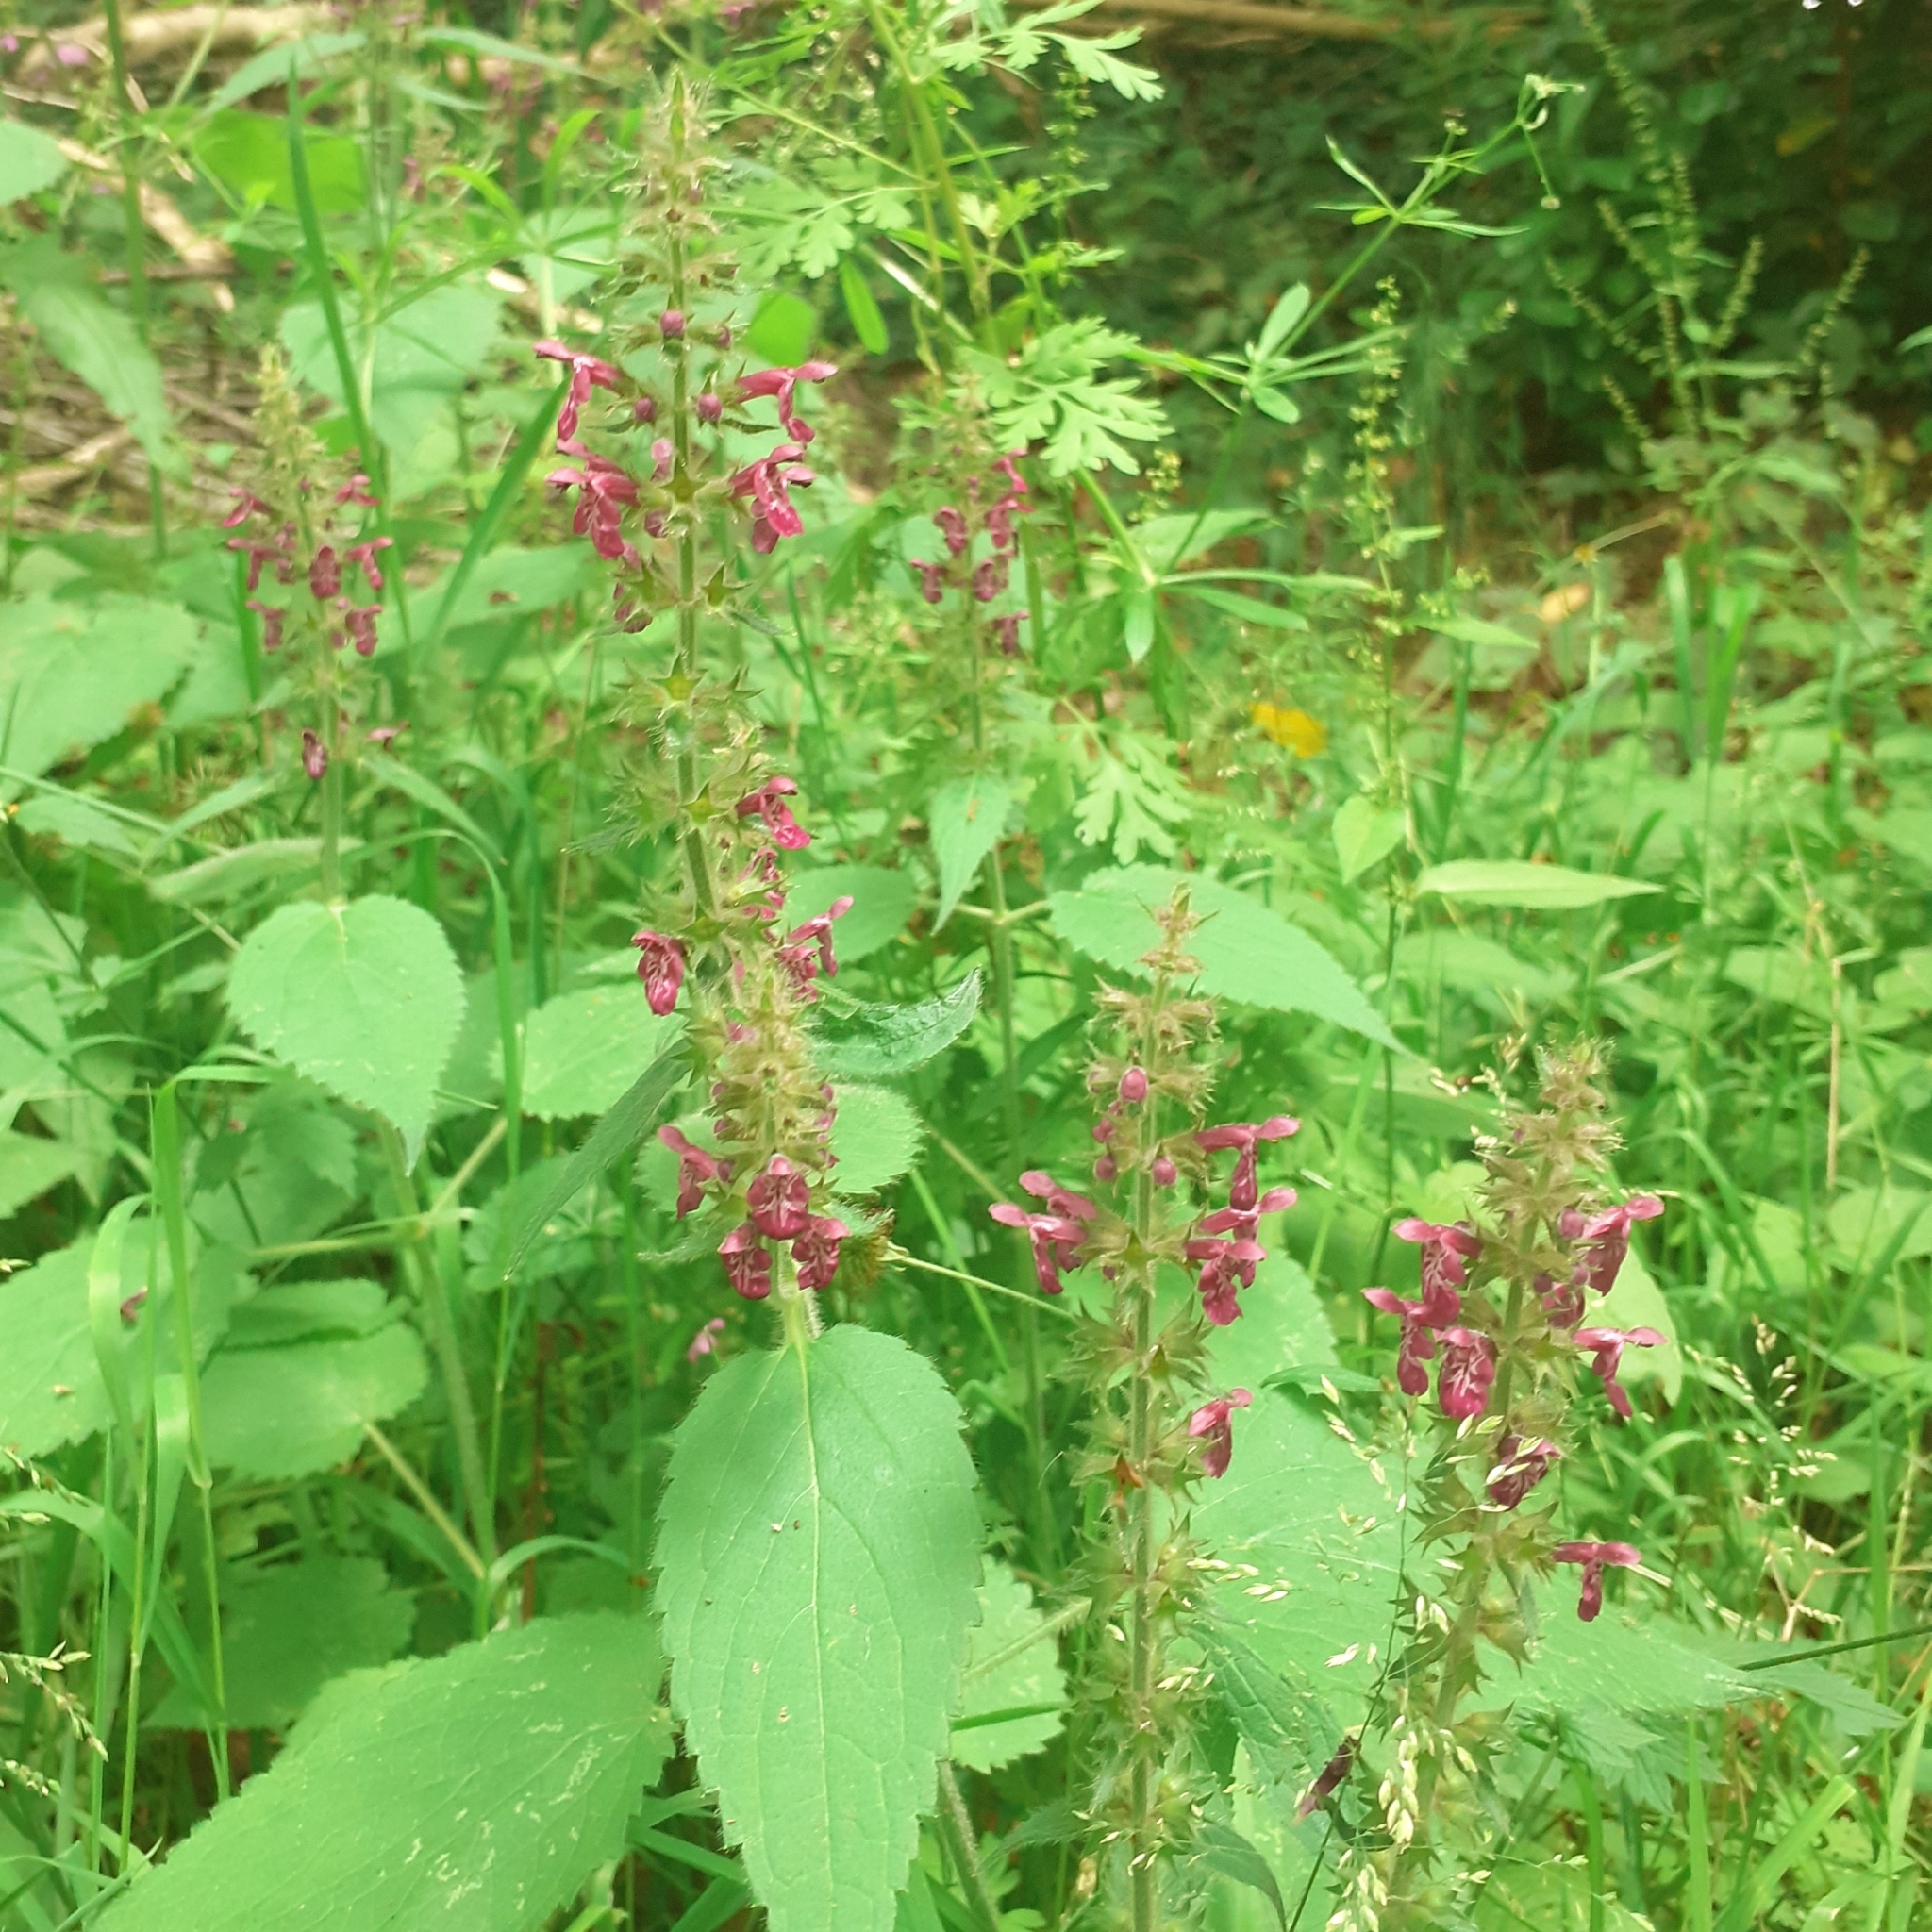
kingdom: Plantae
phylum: Tracheophyta
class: Magnoliopsida
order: Lamiales
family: Lamiaceae
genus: Stachys
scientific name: Stachys sylvatica
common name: Hedge woundwort
